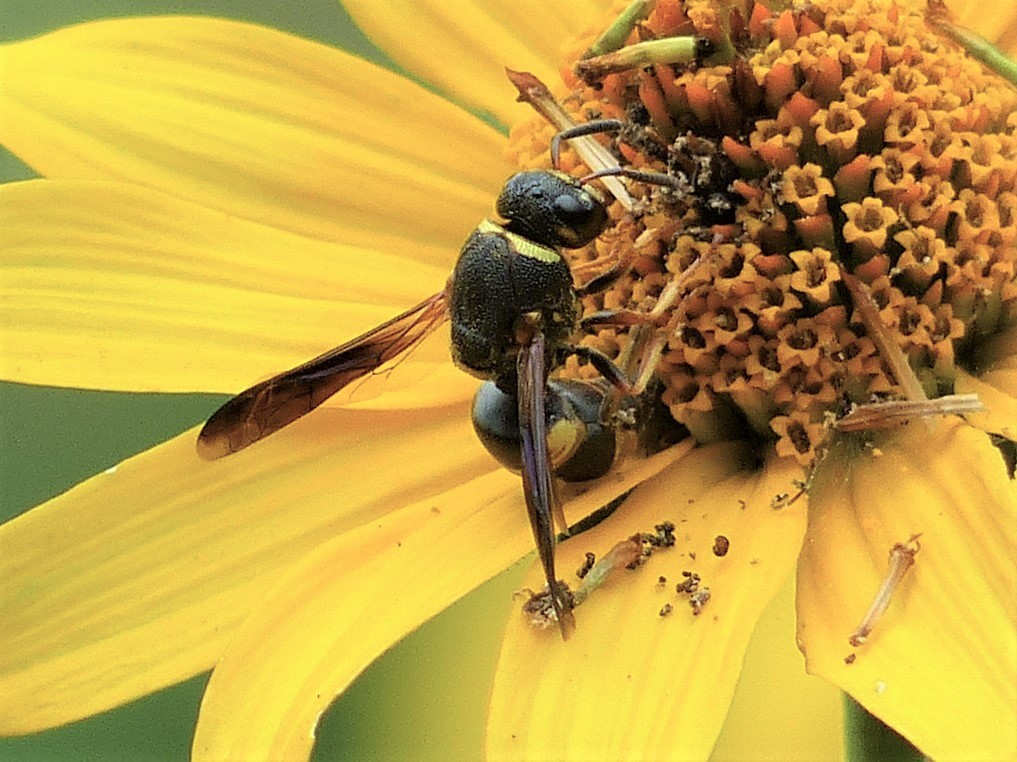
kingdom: Animalia
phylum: Arthropoda
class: Insecta
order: Hymenoptera
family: Eumenidae
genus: Euodynerus
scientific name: Euodynerus hidalgo
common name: Wasp
